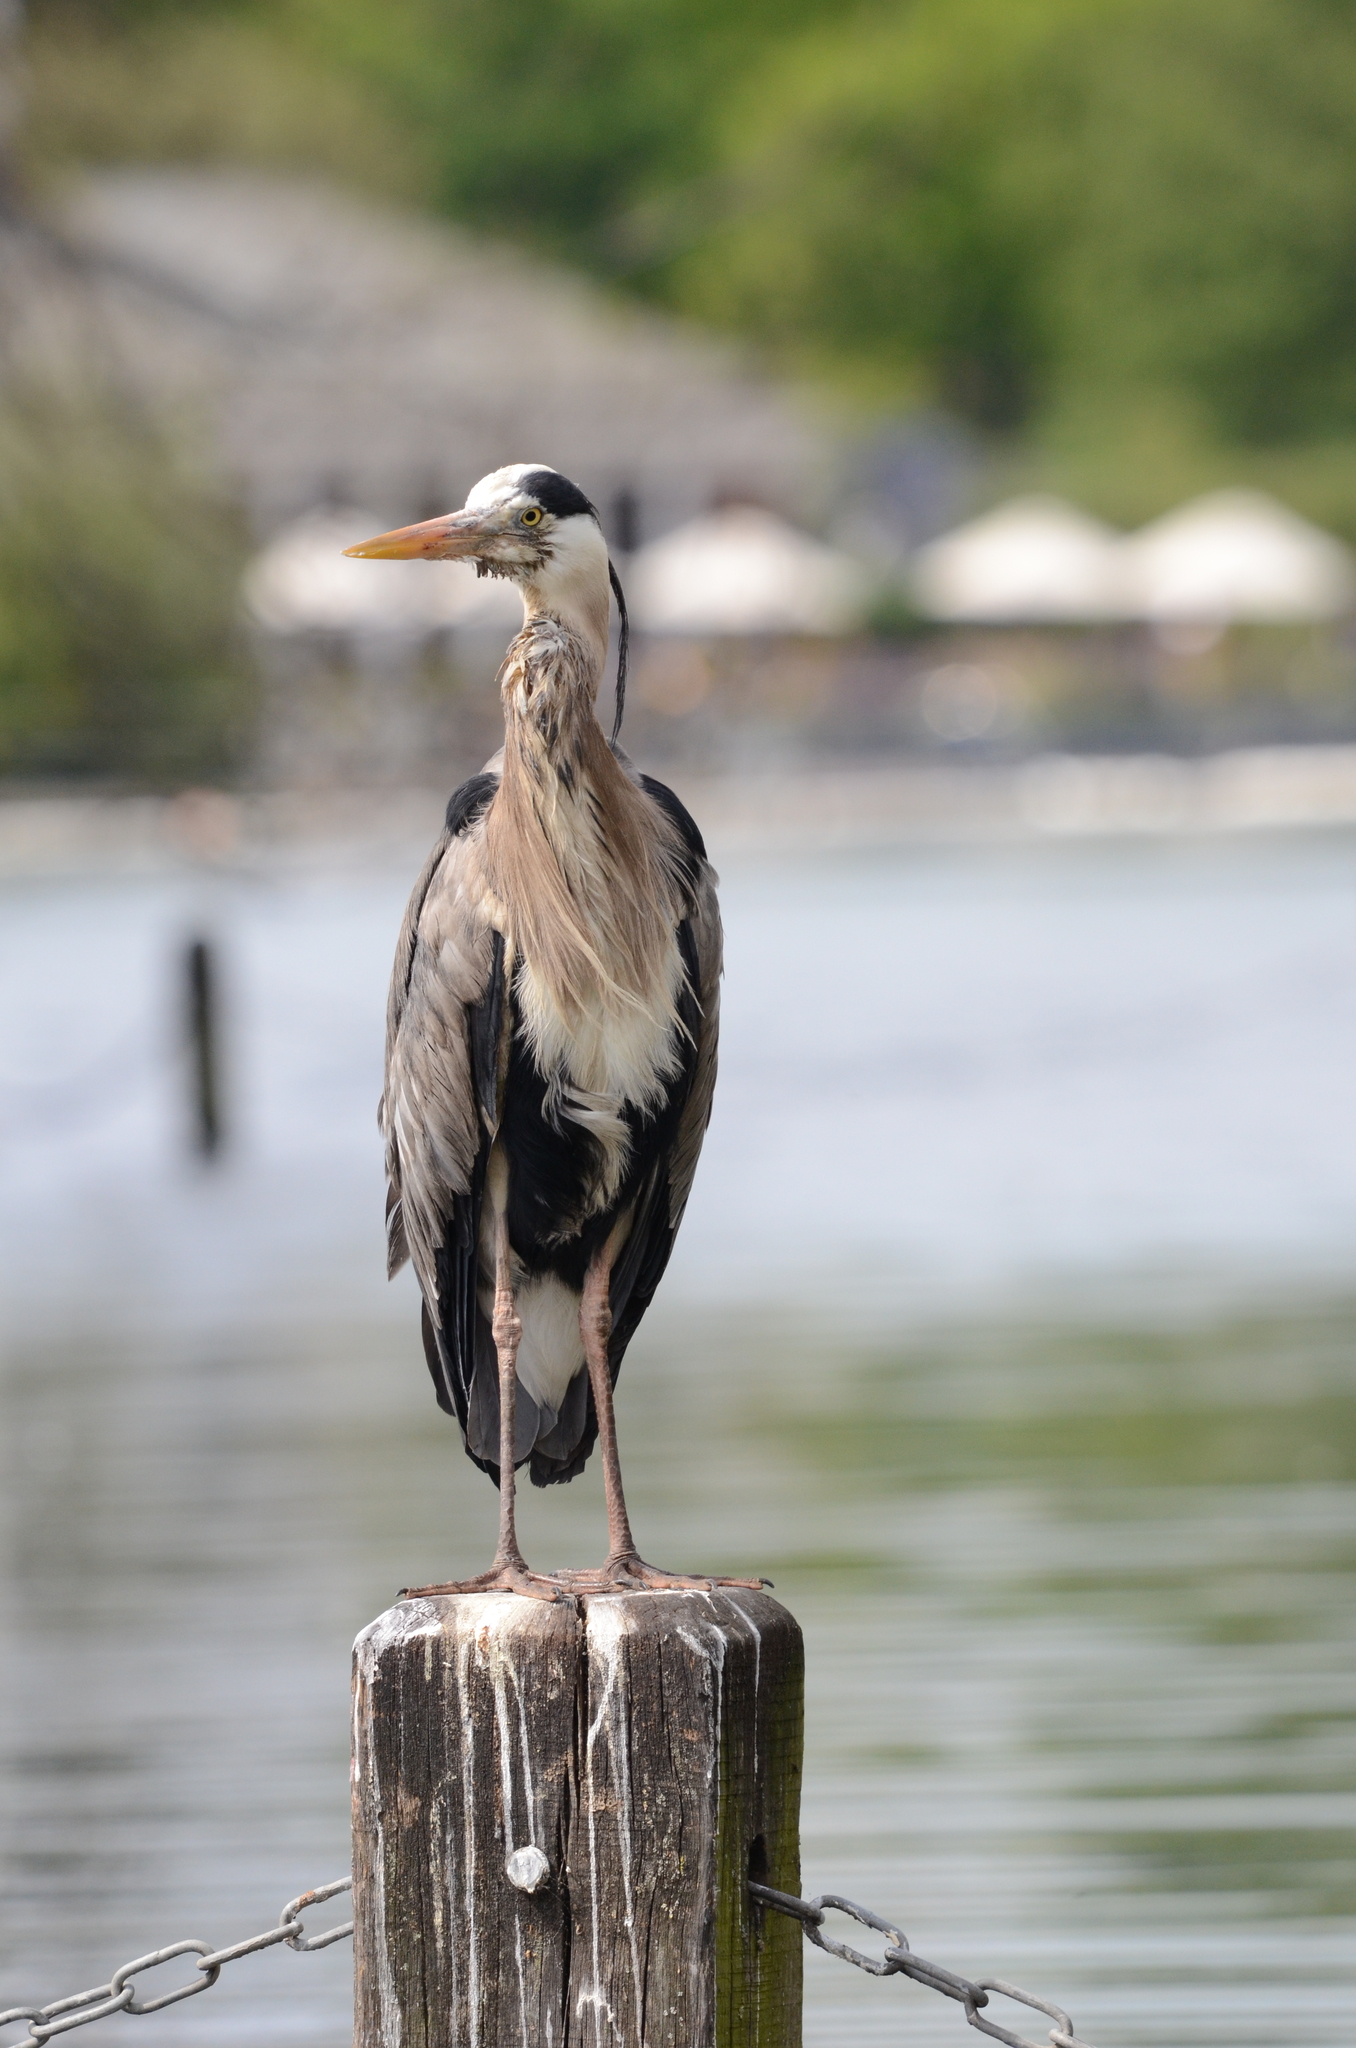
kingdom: Animalia
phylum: Chordata
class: Aves
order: Pelecaniformes
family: Ardeidae
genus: Ardea
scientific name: Ardea cinerea
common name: Grey heron
